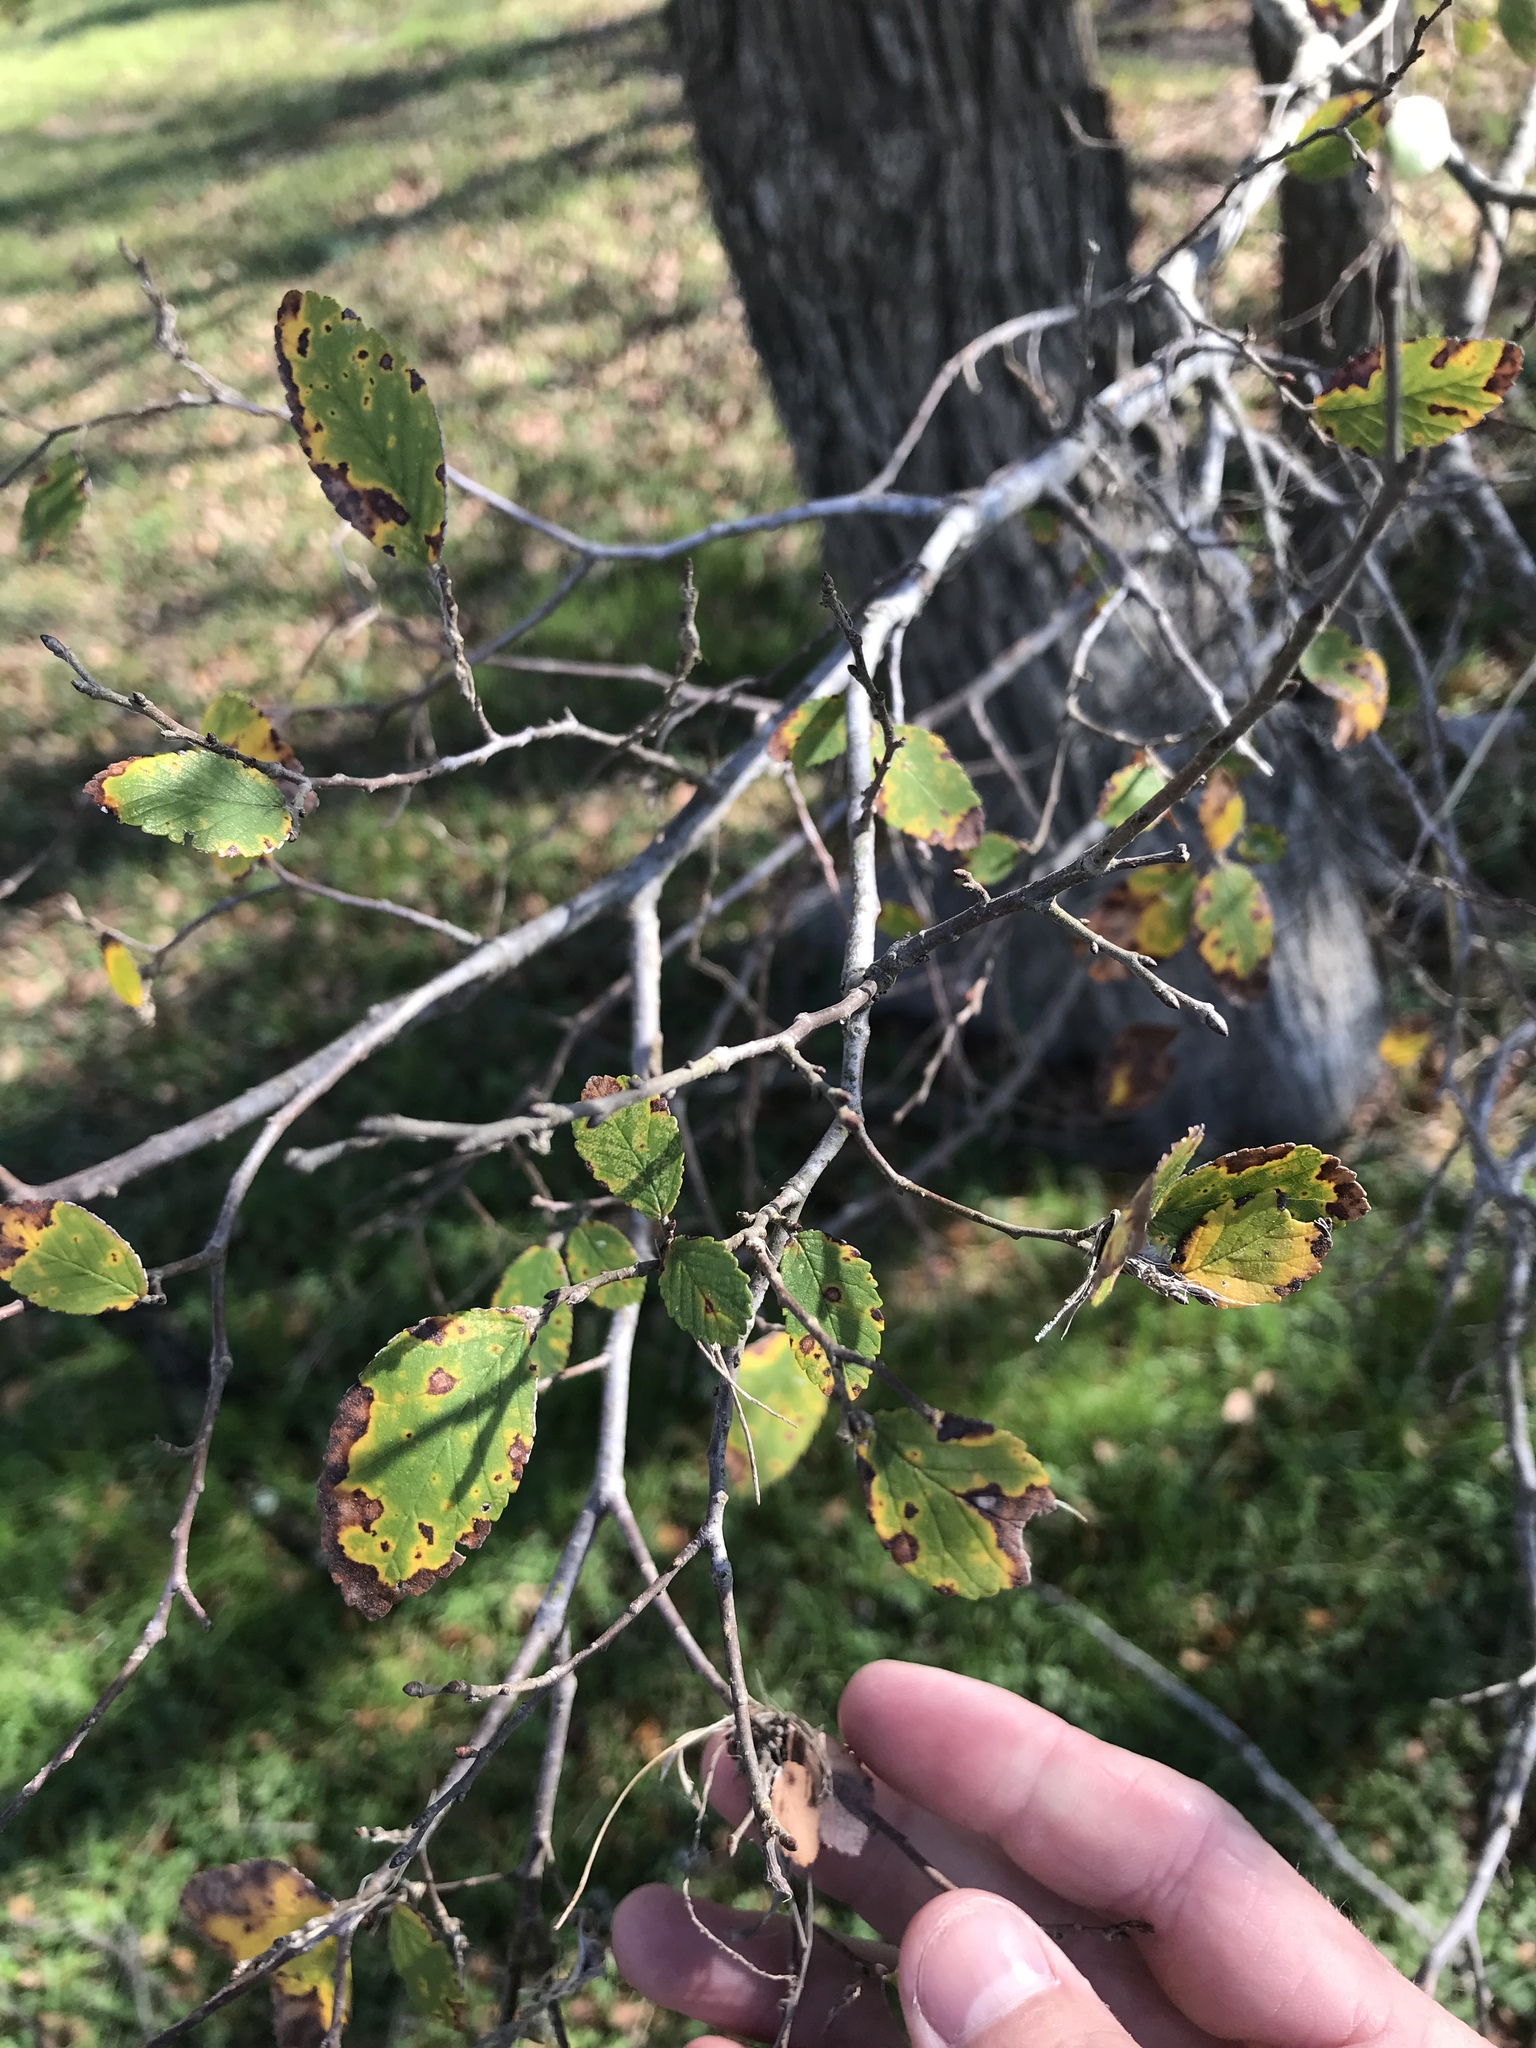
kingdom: Plantae
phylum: Tracheophyta
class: Magnoliopsida
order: Rosales
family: Ulmaceae
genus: Ulmus
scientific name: Ulmus crassifolia
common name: Basket elm
